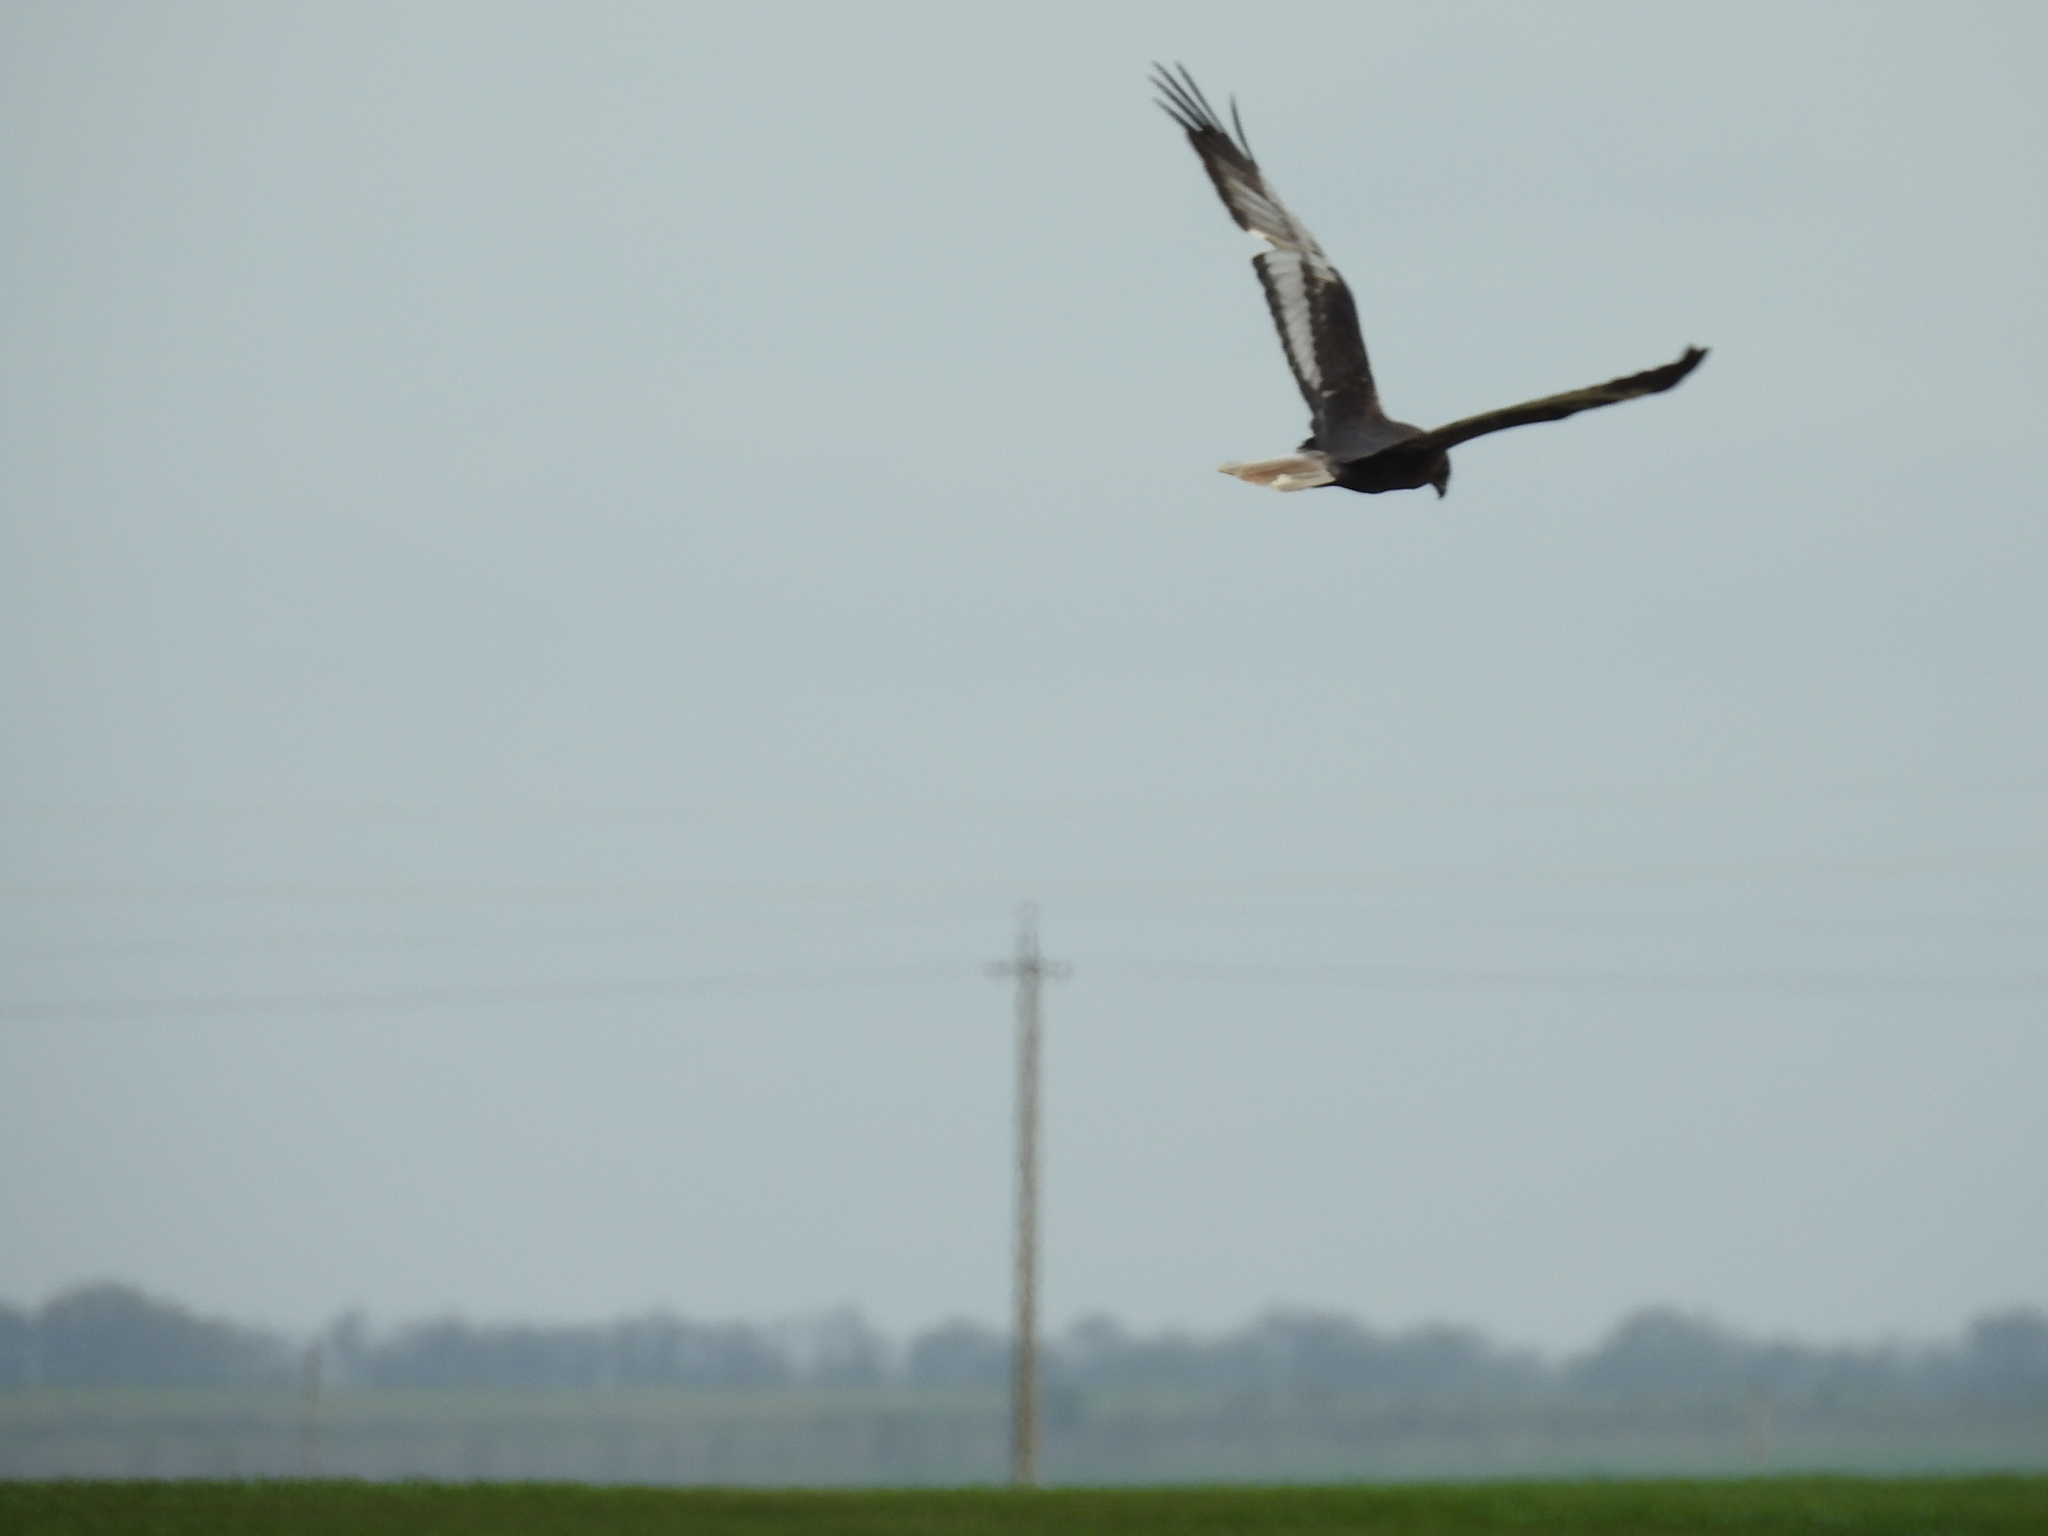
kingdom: Animalia
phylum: Chordata
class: Aves
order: Accipitriformes
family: Accipitridae
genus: Circus
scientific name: Circus aeruginosus
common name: Western marsh harrier
